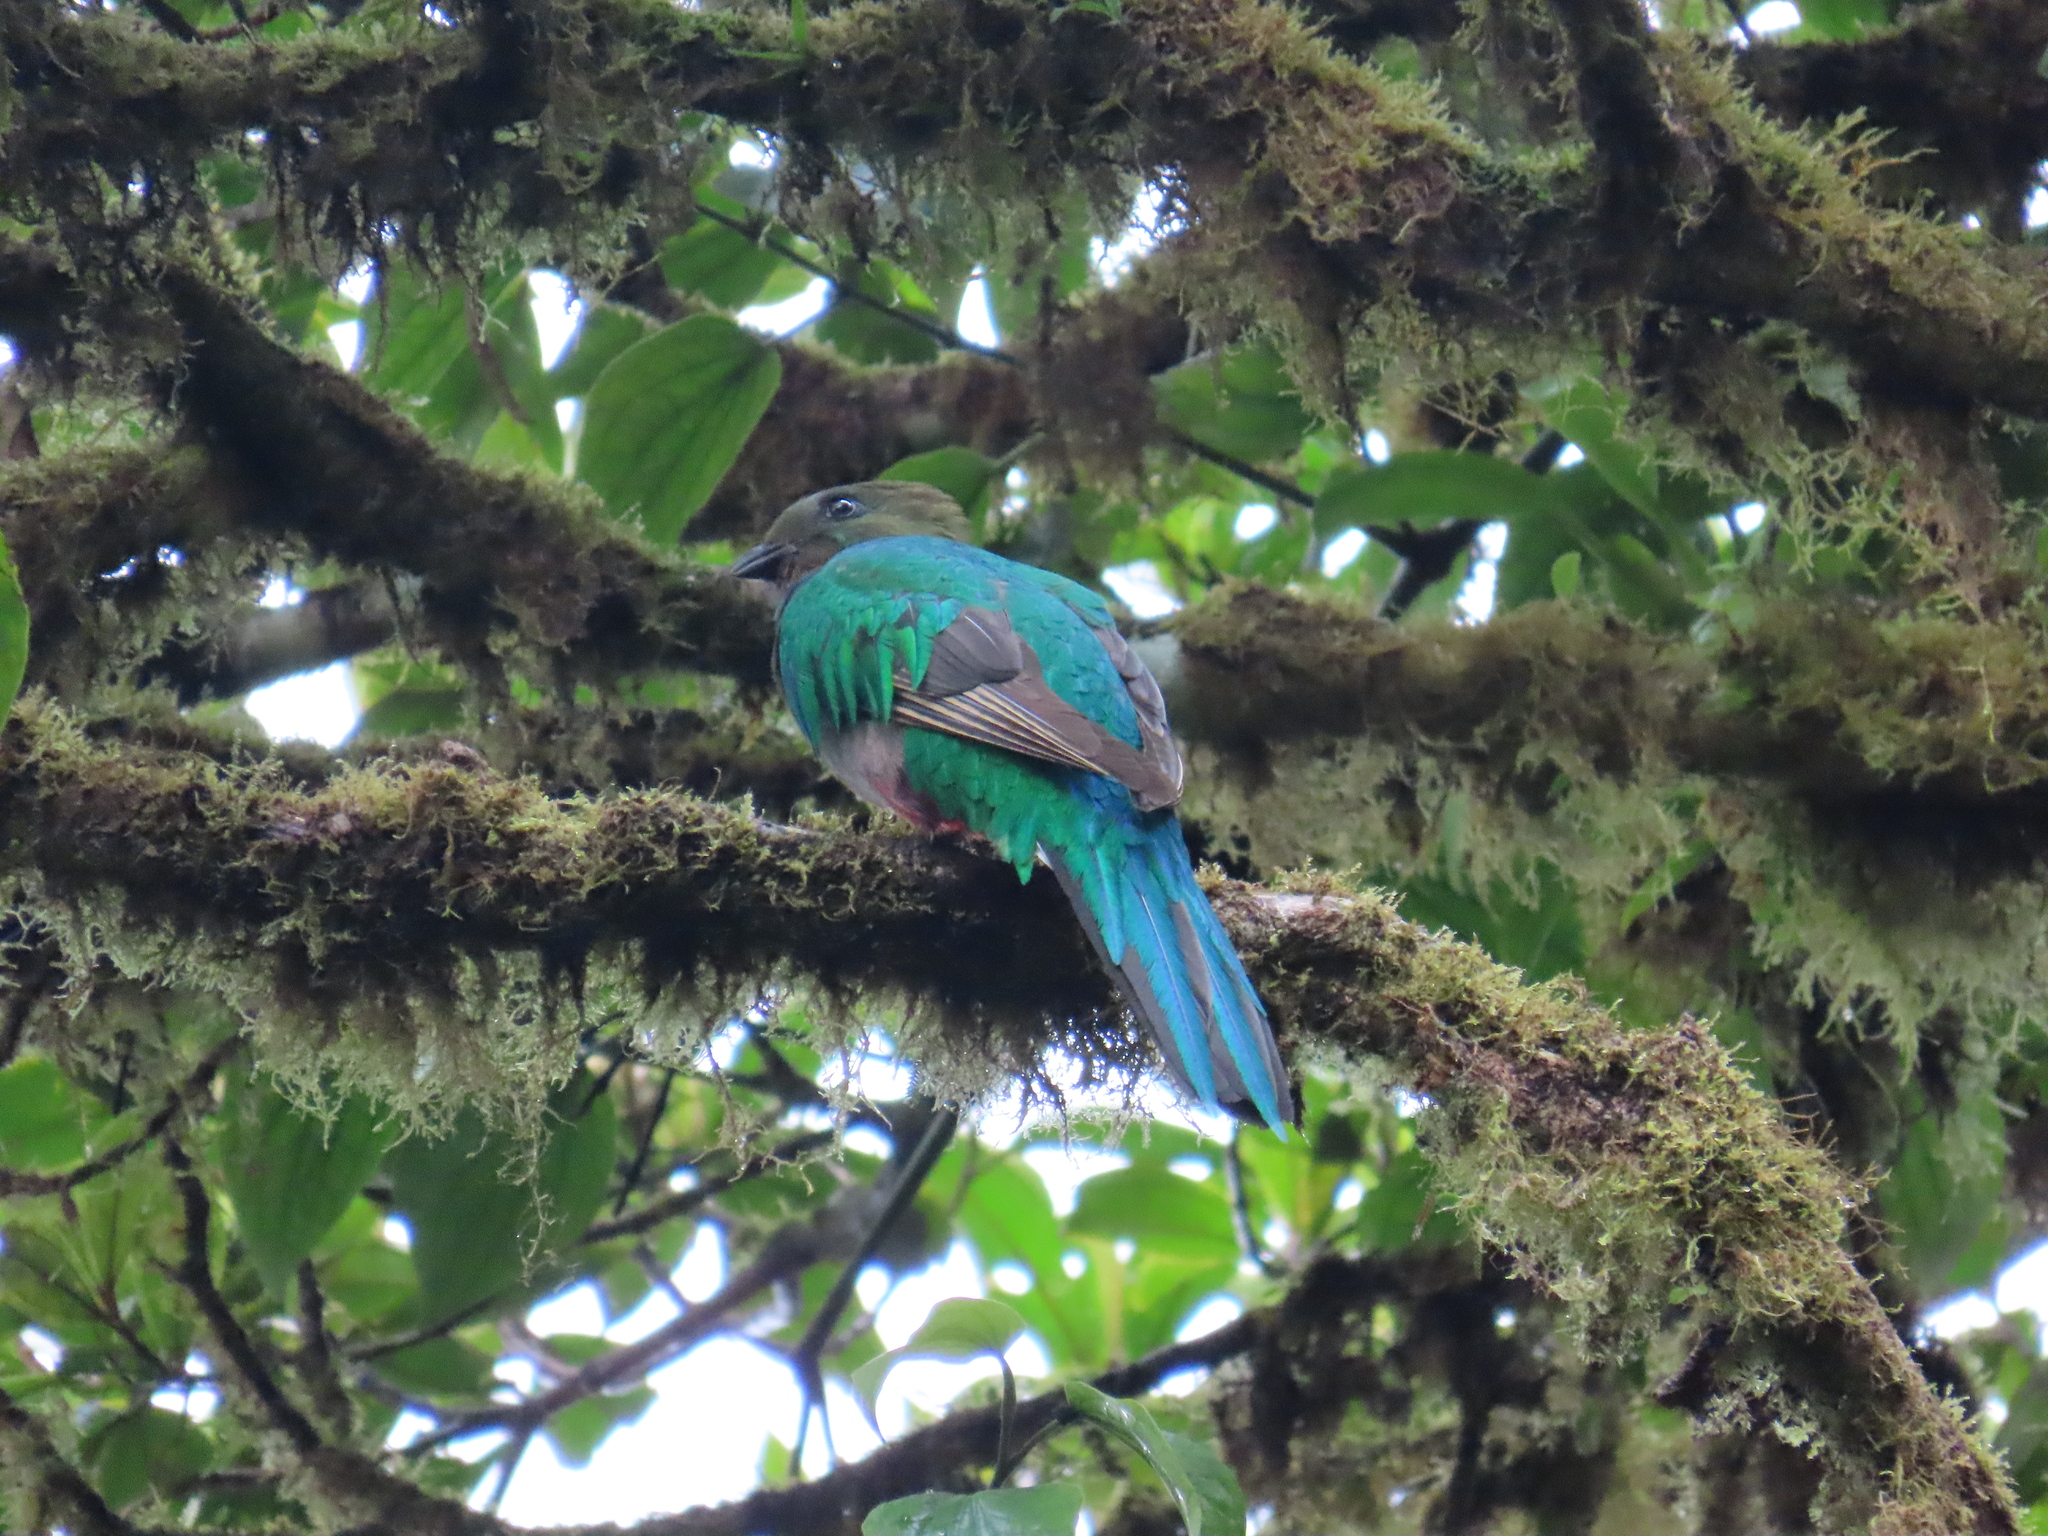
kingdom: Animalia
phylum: Chordata
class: Aves
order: Trogoniformes
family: Trogonidae
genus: Pharomachrus
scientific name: Pharomachrus mocinno
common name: Resplendent quetzal
